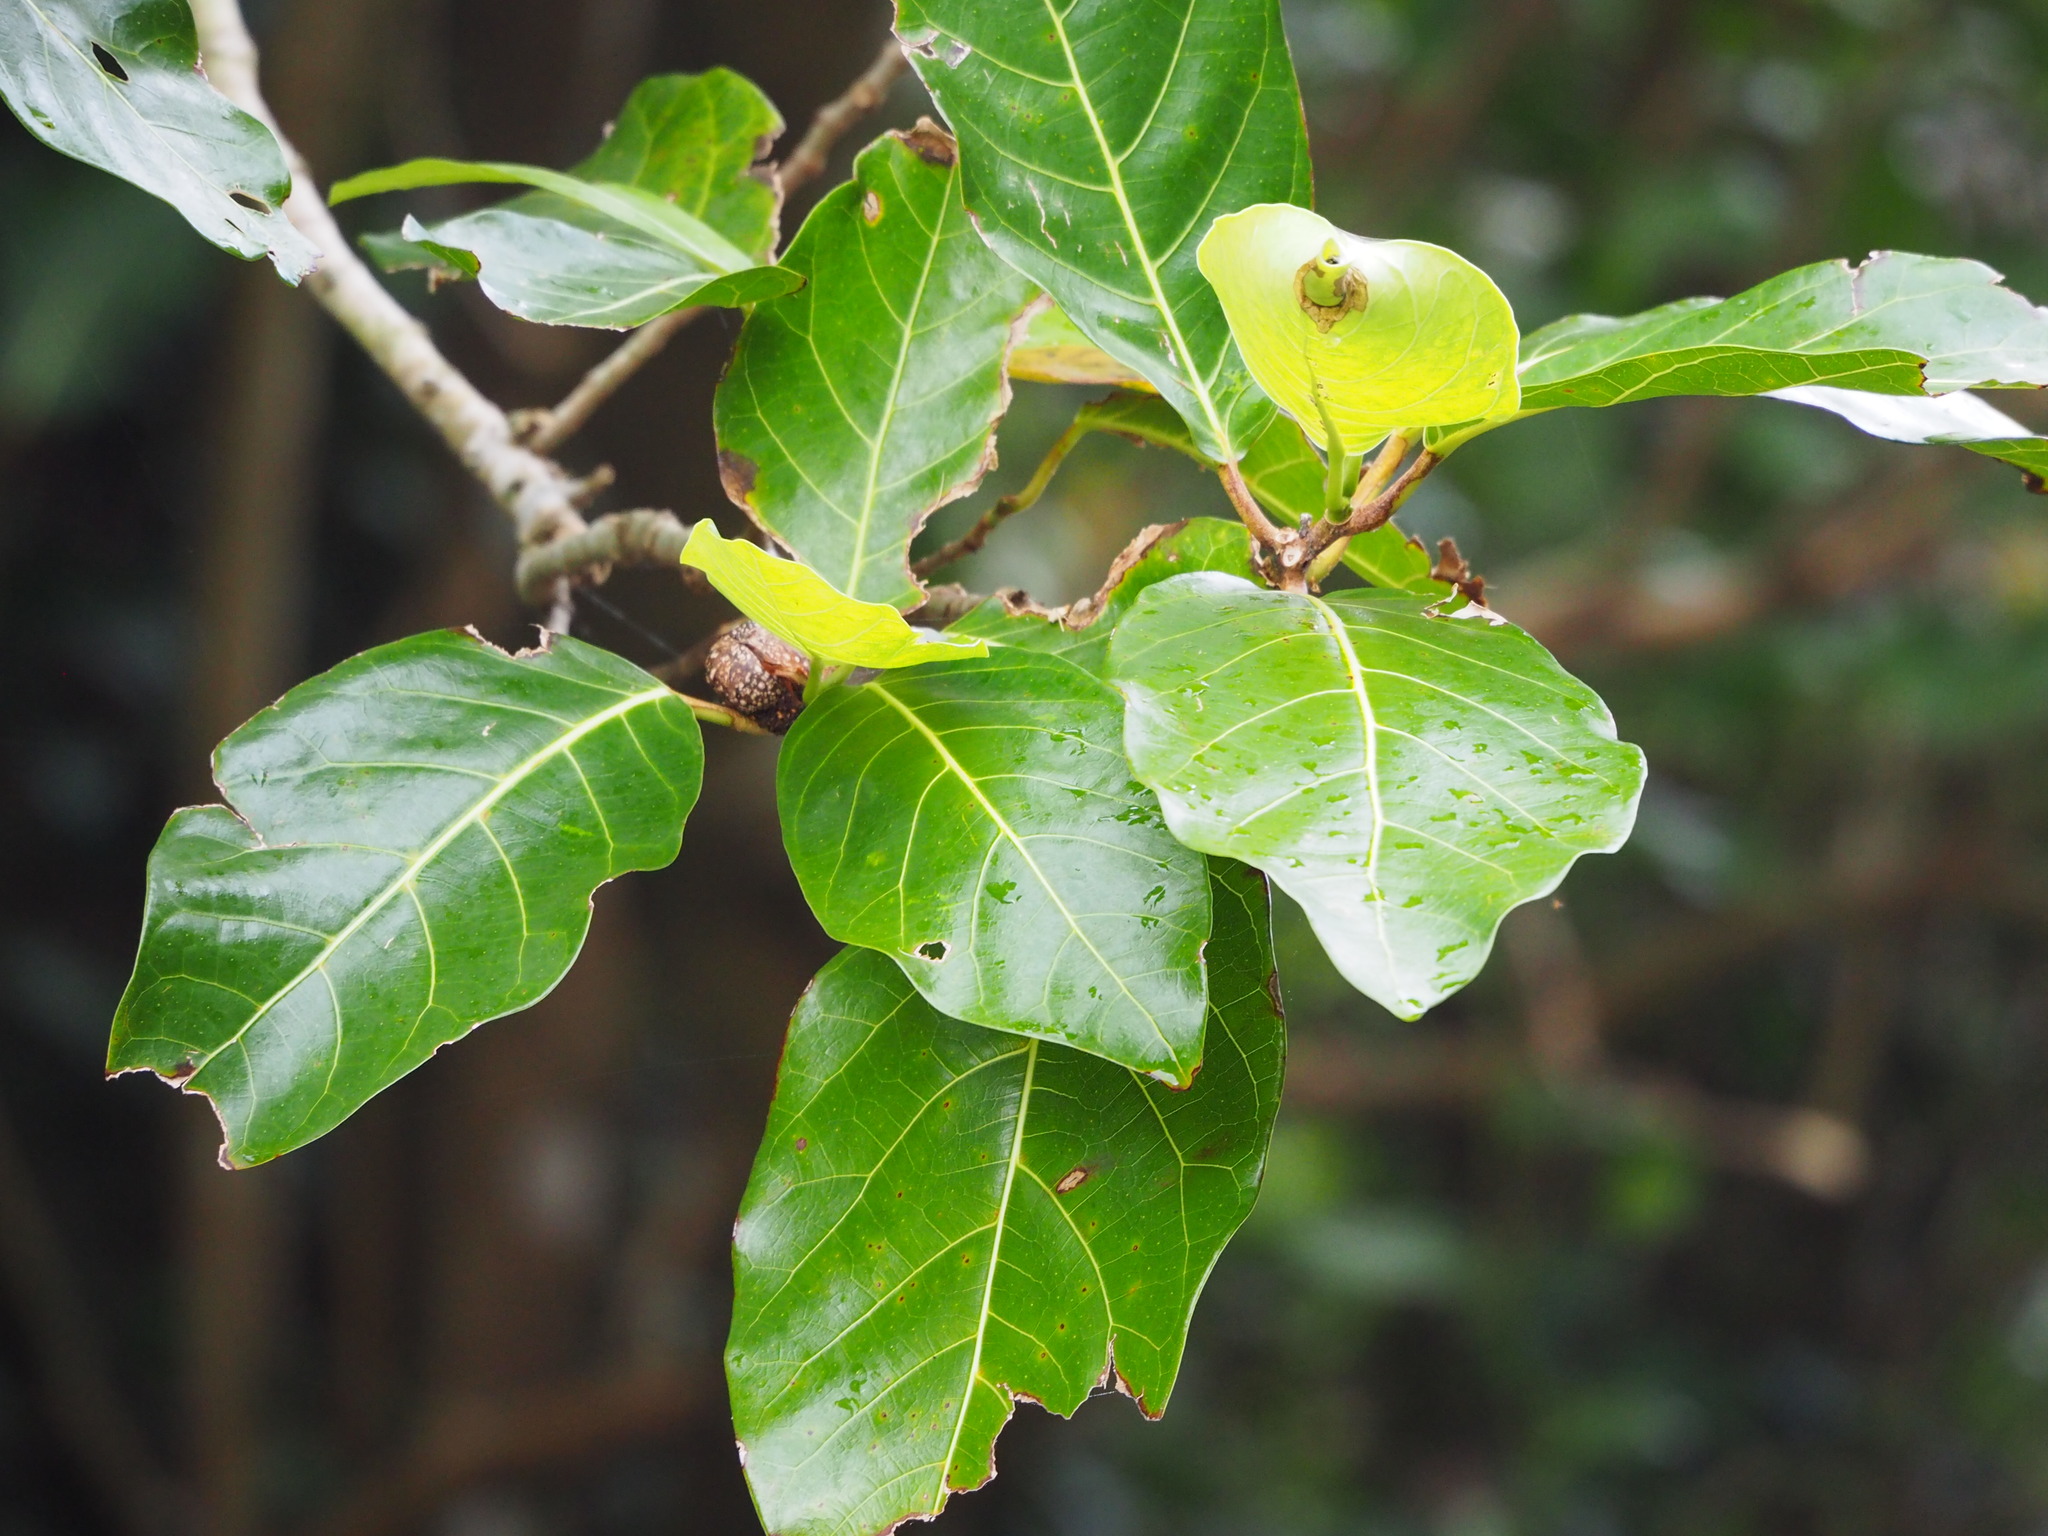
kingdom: Plantae
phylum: Tracheophyta
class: Magnoliopsida
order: Rosales
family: Moraceae
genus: Ficus
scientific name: Ficus septica
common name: Septic fig
